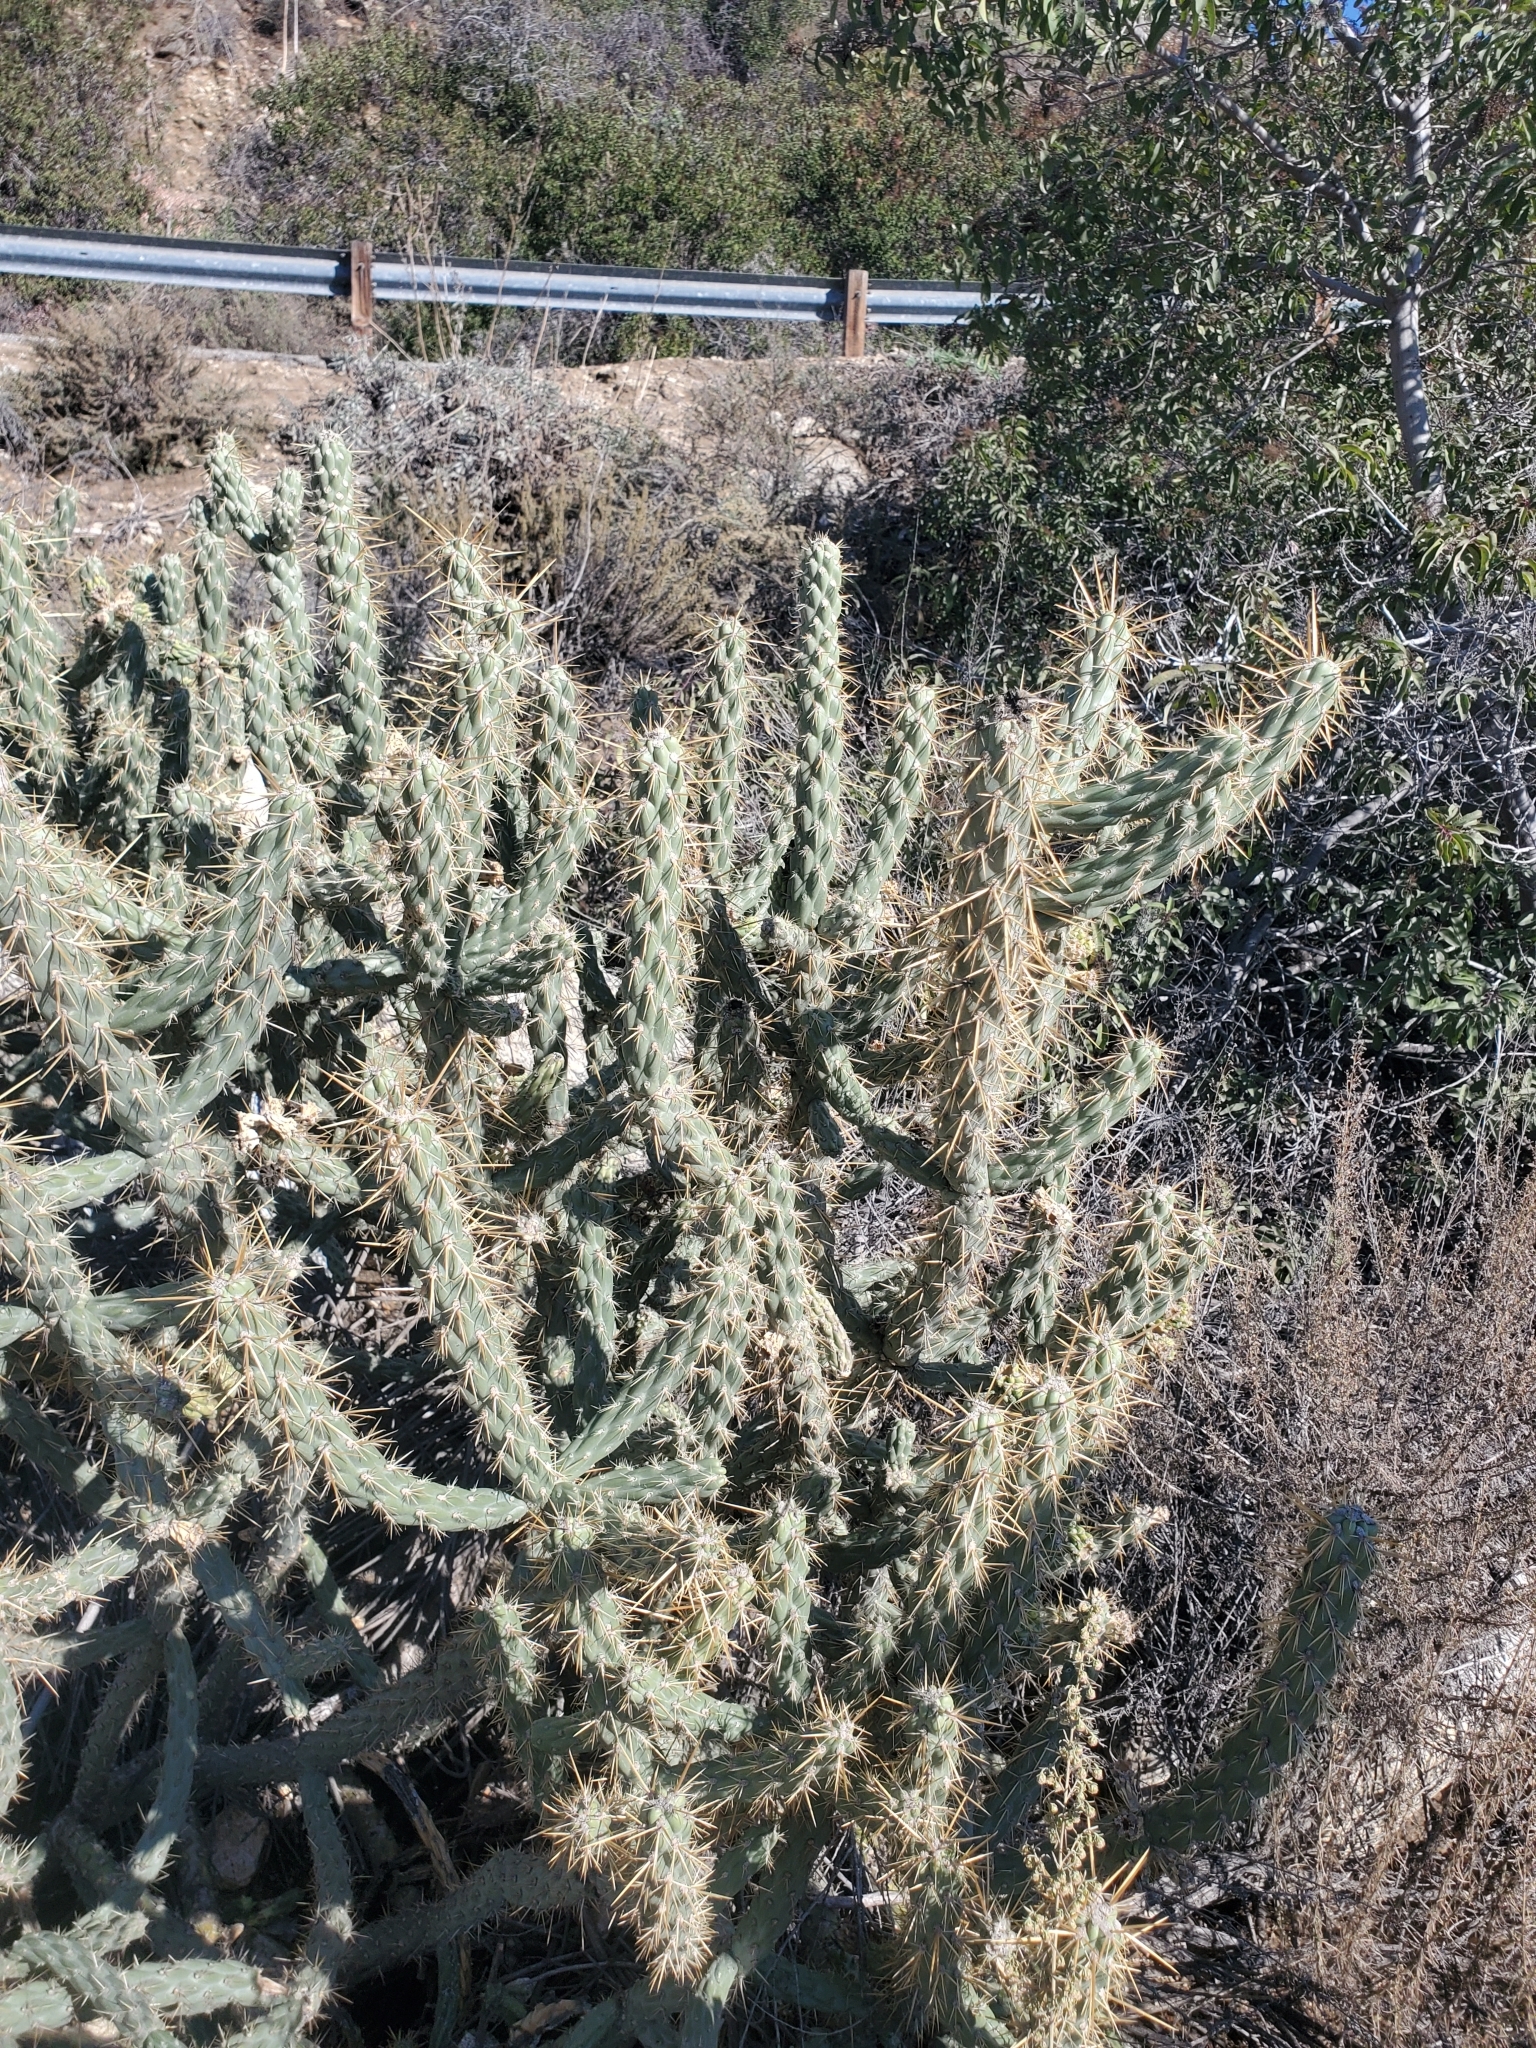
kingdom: Plantae
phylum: Tracheophyta
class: Magnoliopsida
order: Caryophyllales
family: Cactaceae
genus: Cylindropuntia
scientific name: Cylindropuntia bernardina
